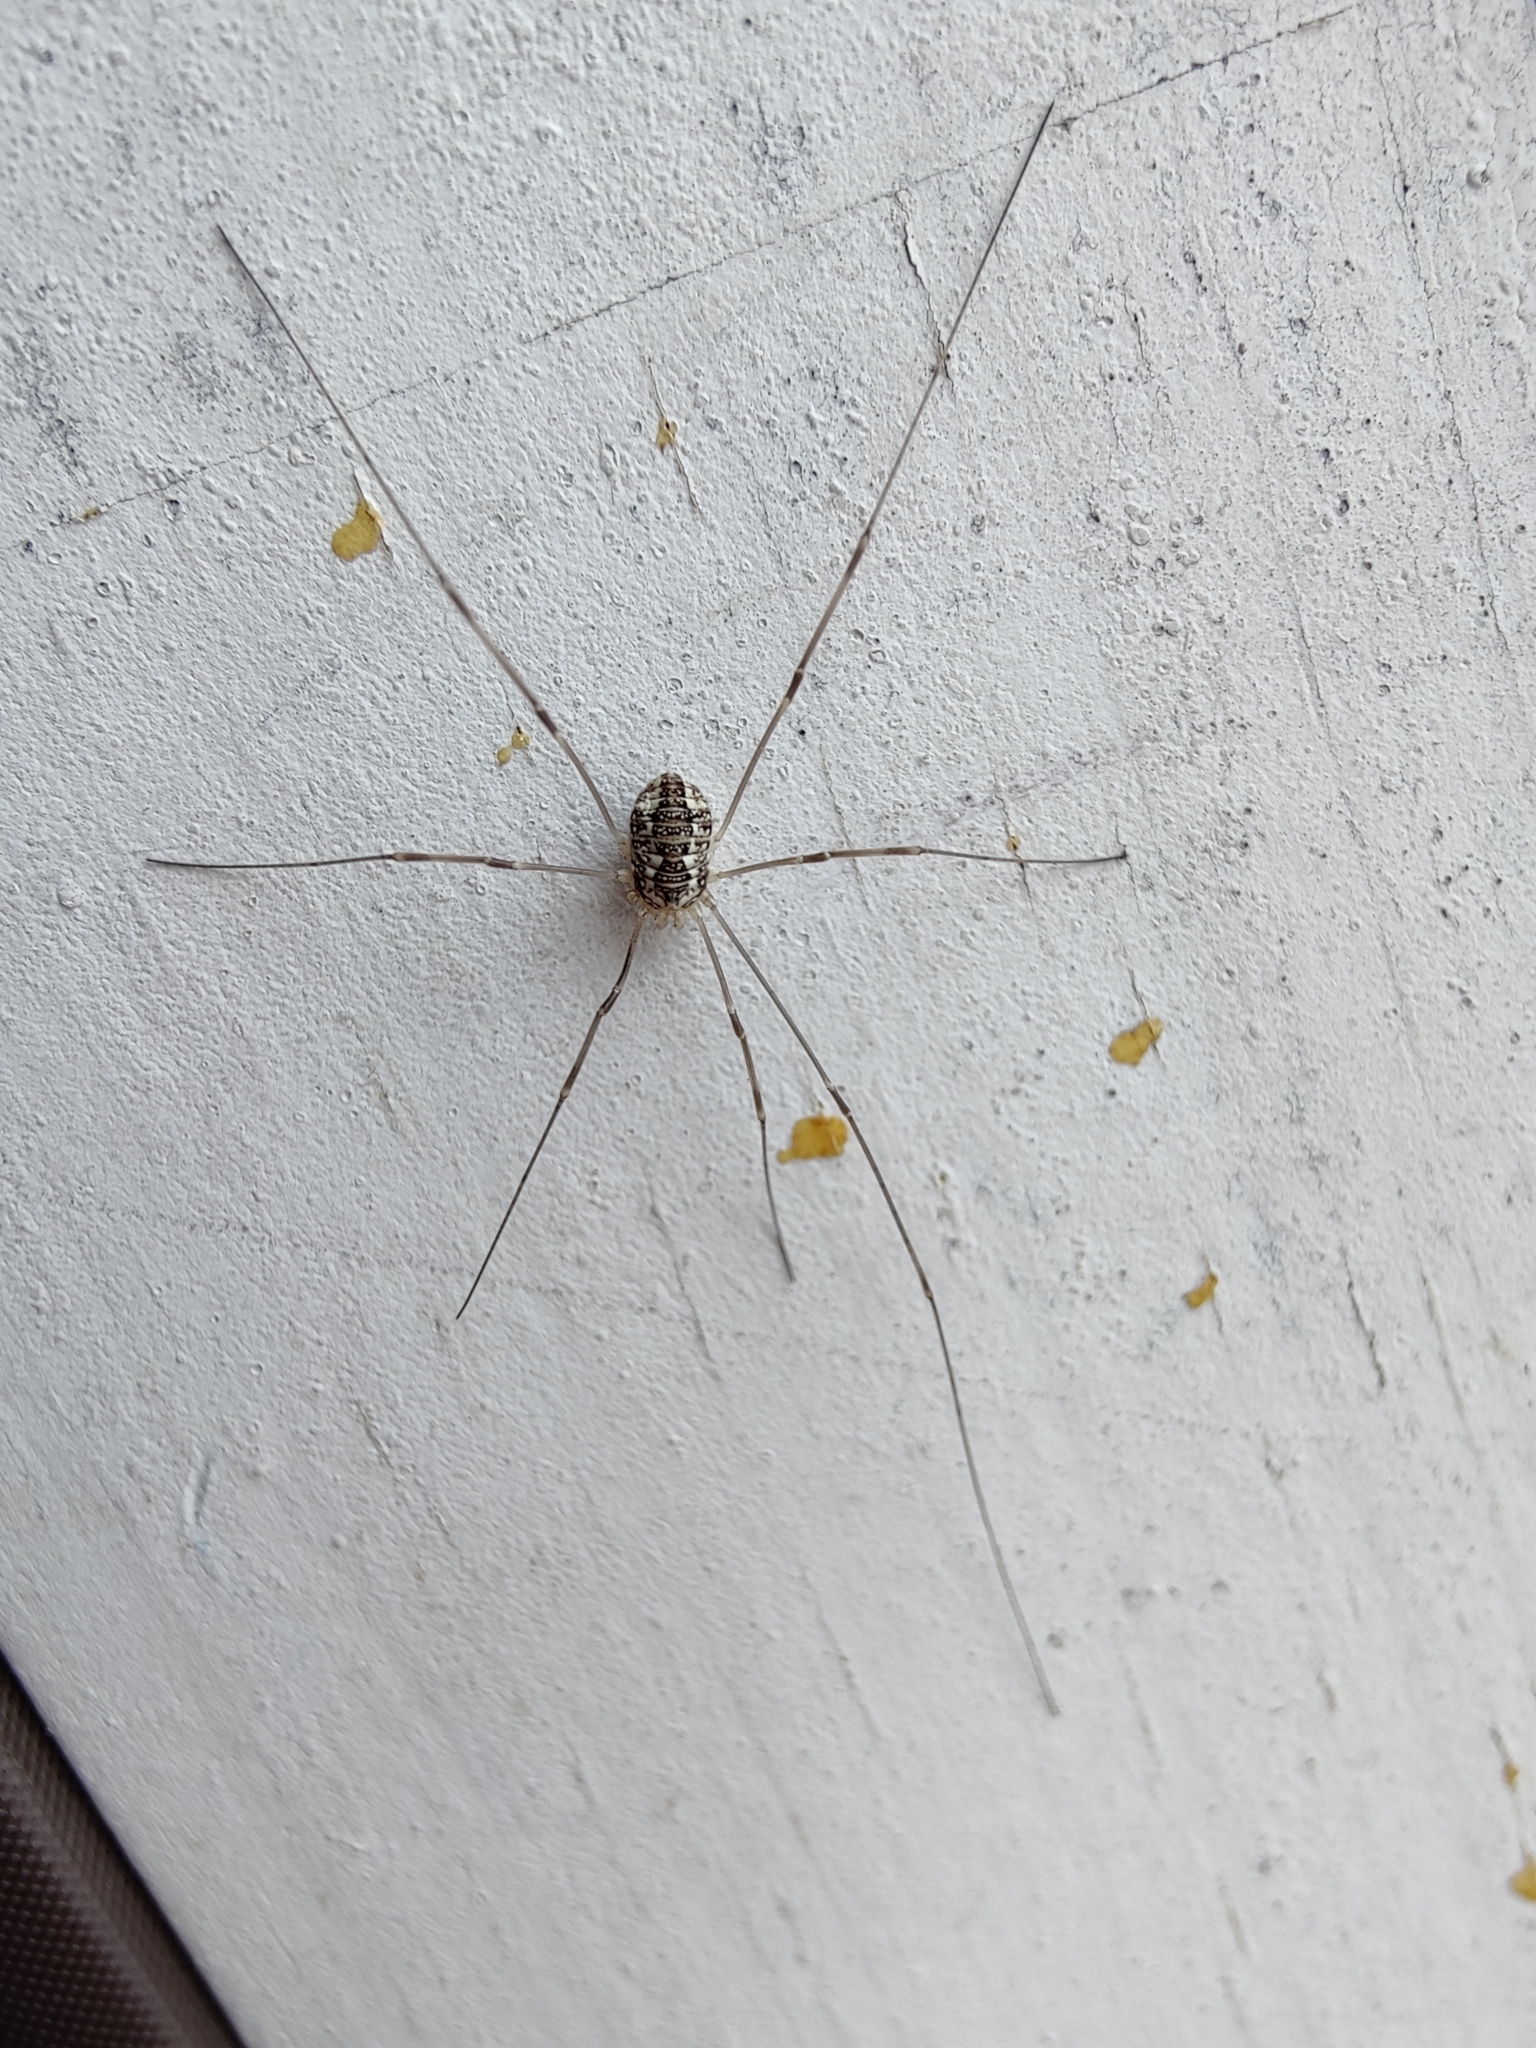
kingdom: Animalia
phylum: Arthropoda
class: Arachnida
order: Opiliones
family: Sclerosomatidae
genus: Leiobunum
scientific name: Leiobunum vittatum
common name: Eastern harvestman
